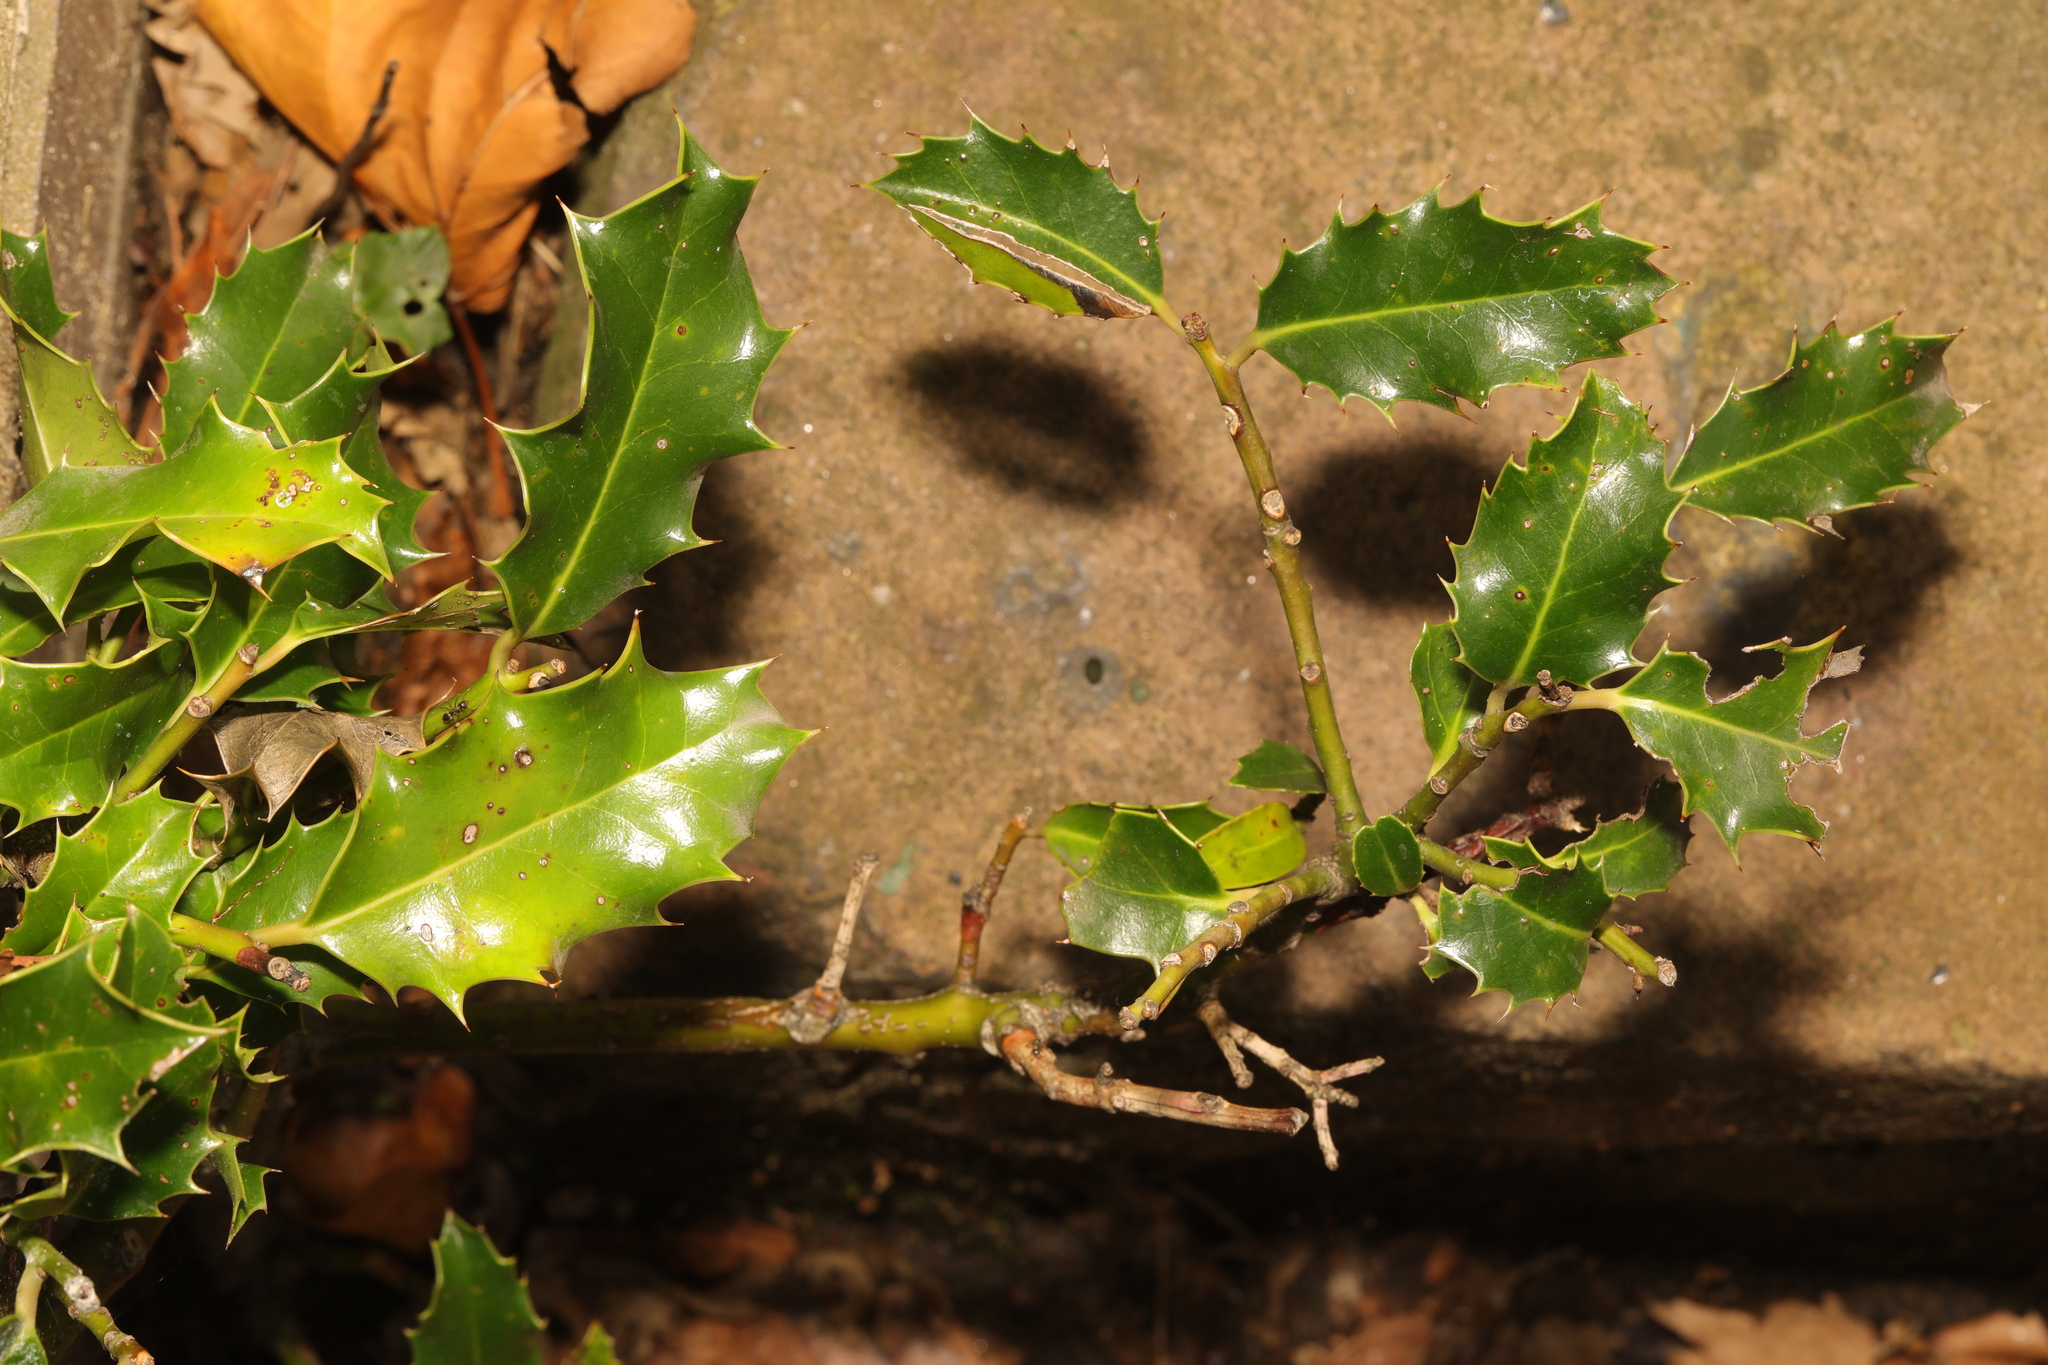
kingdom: Plantae
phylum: Tracheophyta
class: Magnoliopsida
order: Aquifoliales
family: Aquifoliaceae
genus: Ilex
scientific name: Ilex aquifolium
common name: English holly
